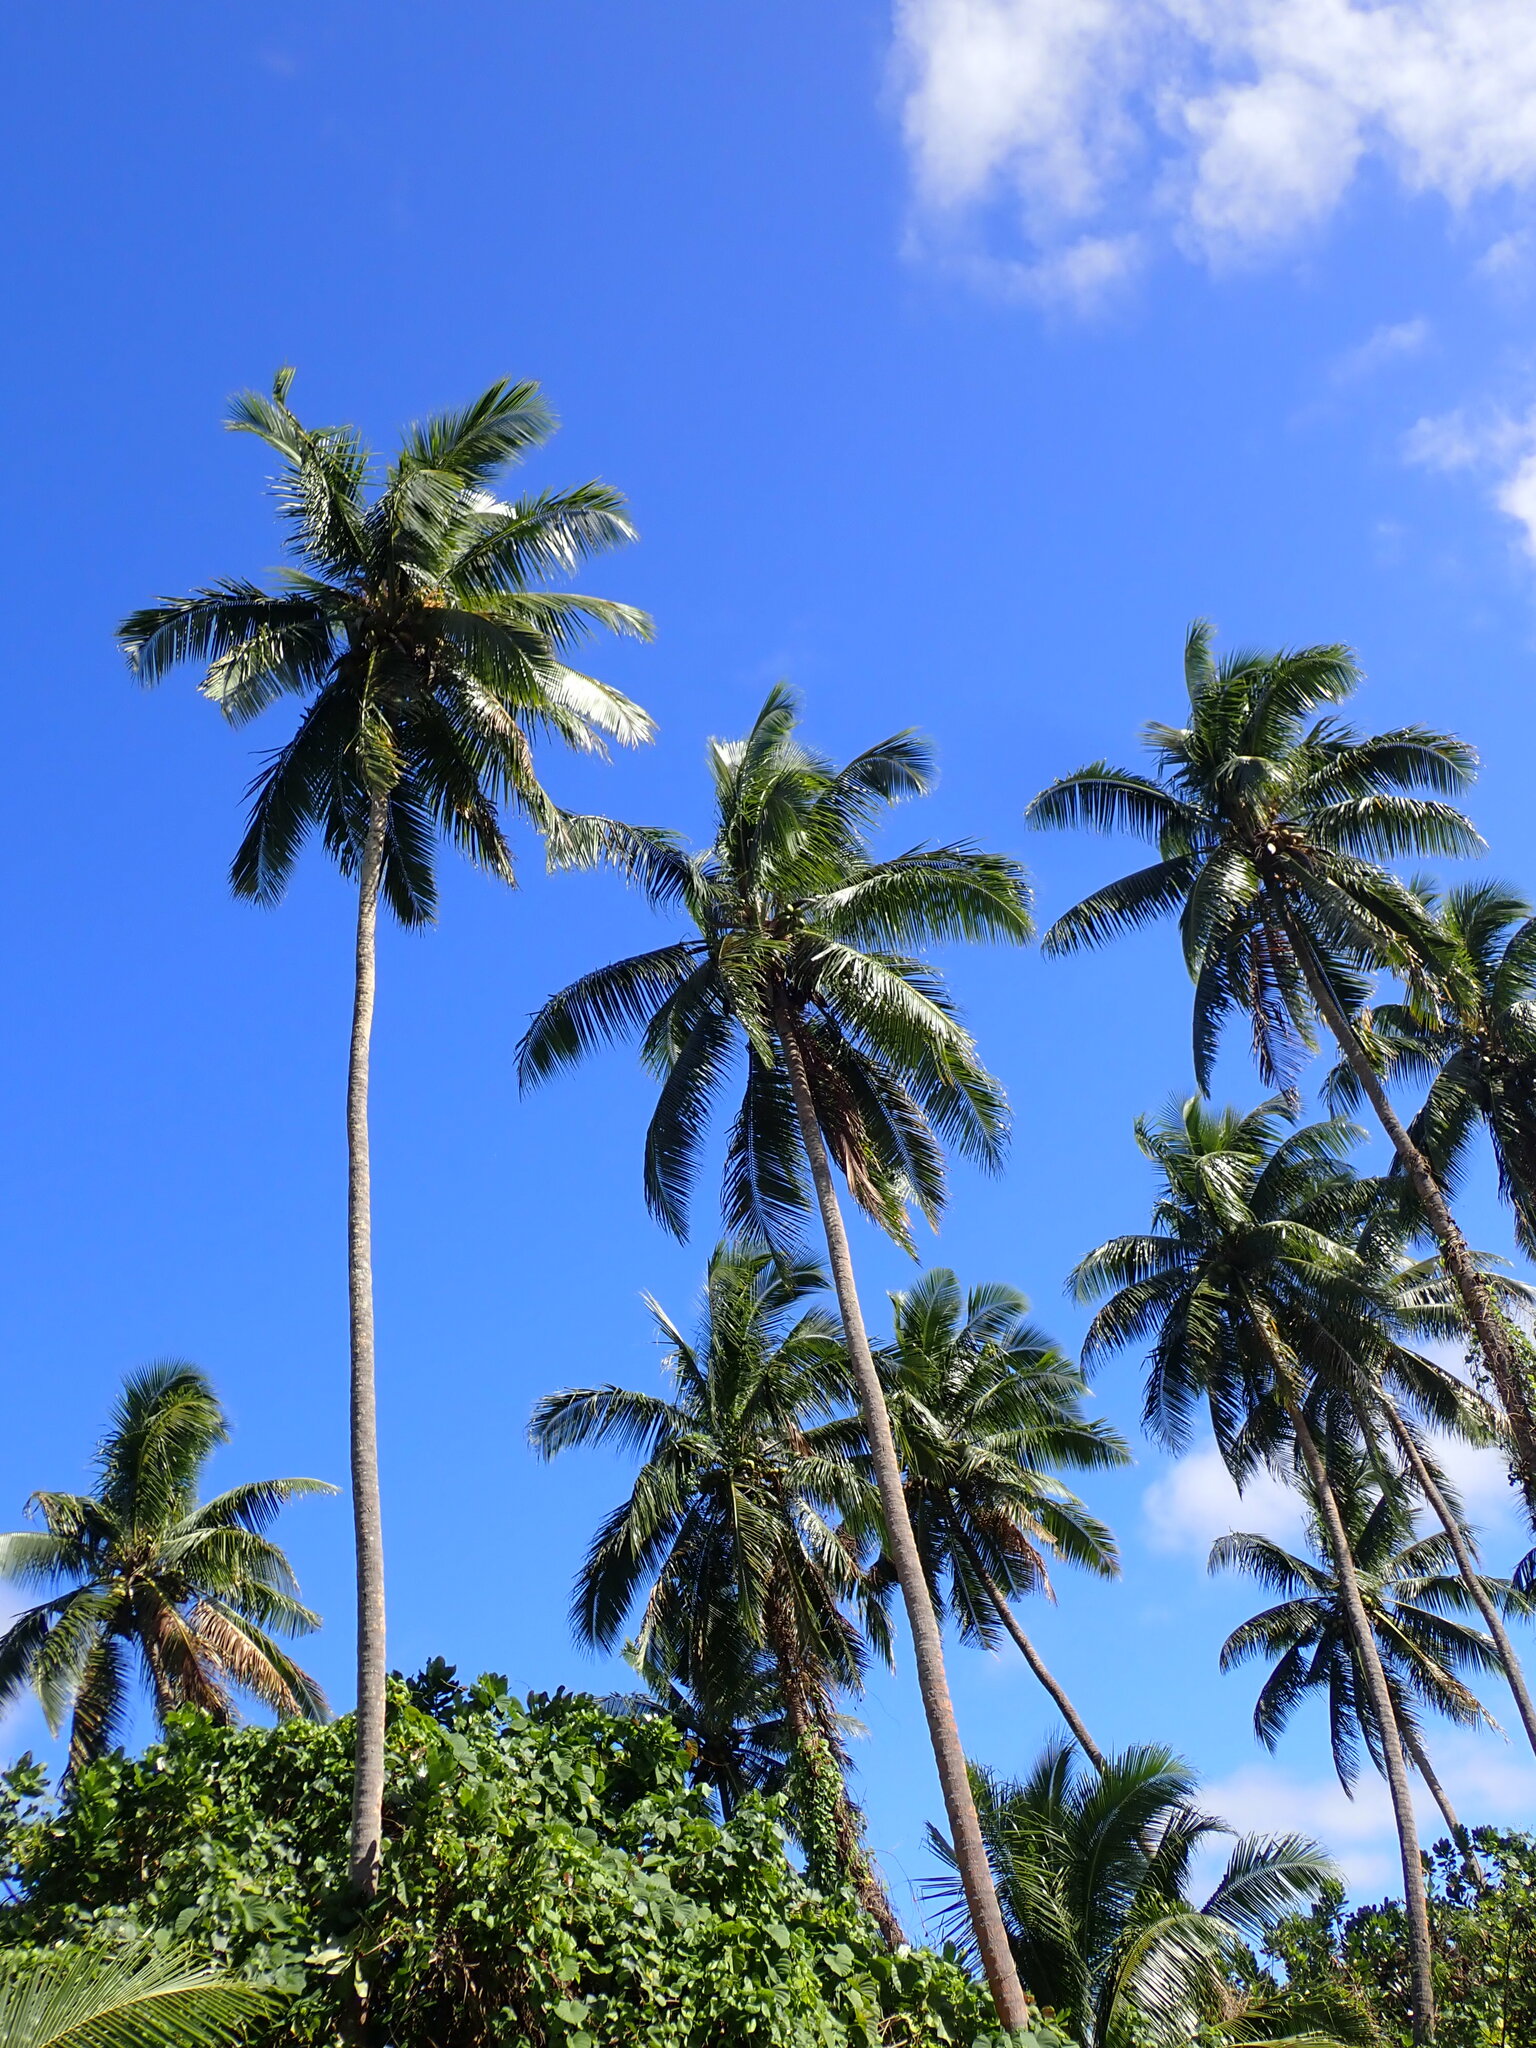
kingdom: Plantae
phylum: Tracheophyta
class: Liliopsida
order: Arecales
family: Arecaceae
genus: Cocos
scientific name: Cocos nucifera
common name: Coconut palm
